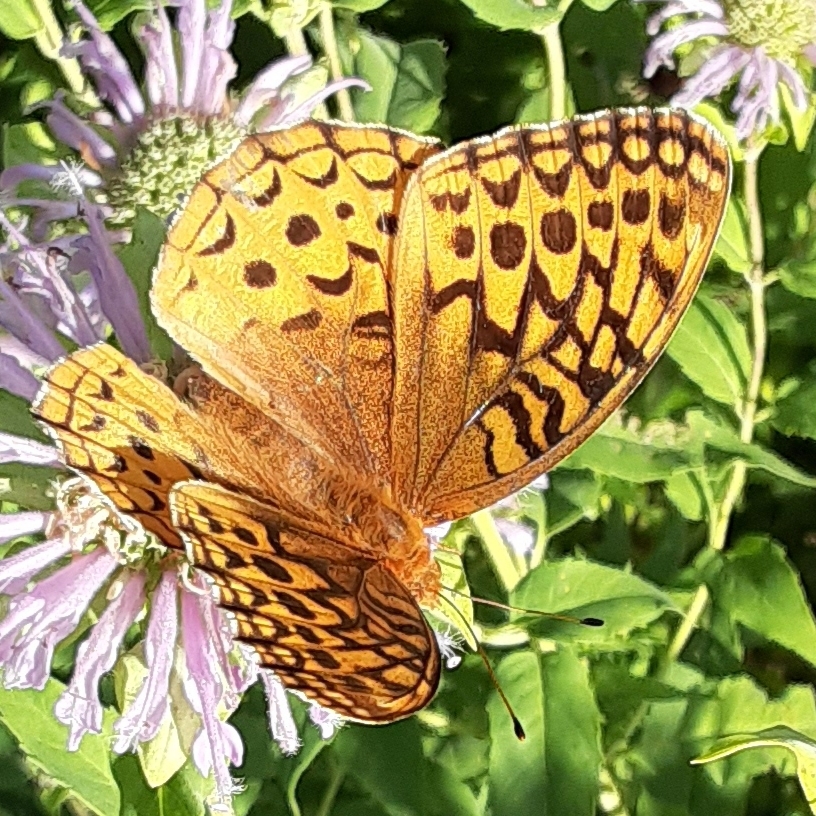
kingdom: Animalia
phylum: Arthropoda
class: Insecta
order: Lepidoptera
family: Nymphalidae
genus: Speyeria
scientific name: Speyeria cybele
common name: Great spangled fritillary
